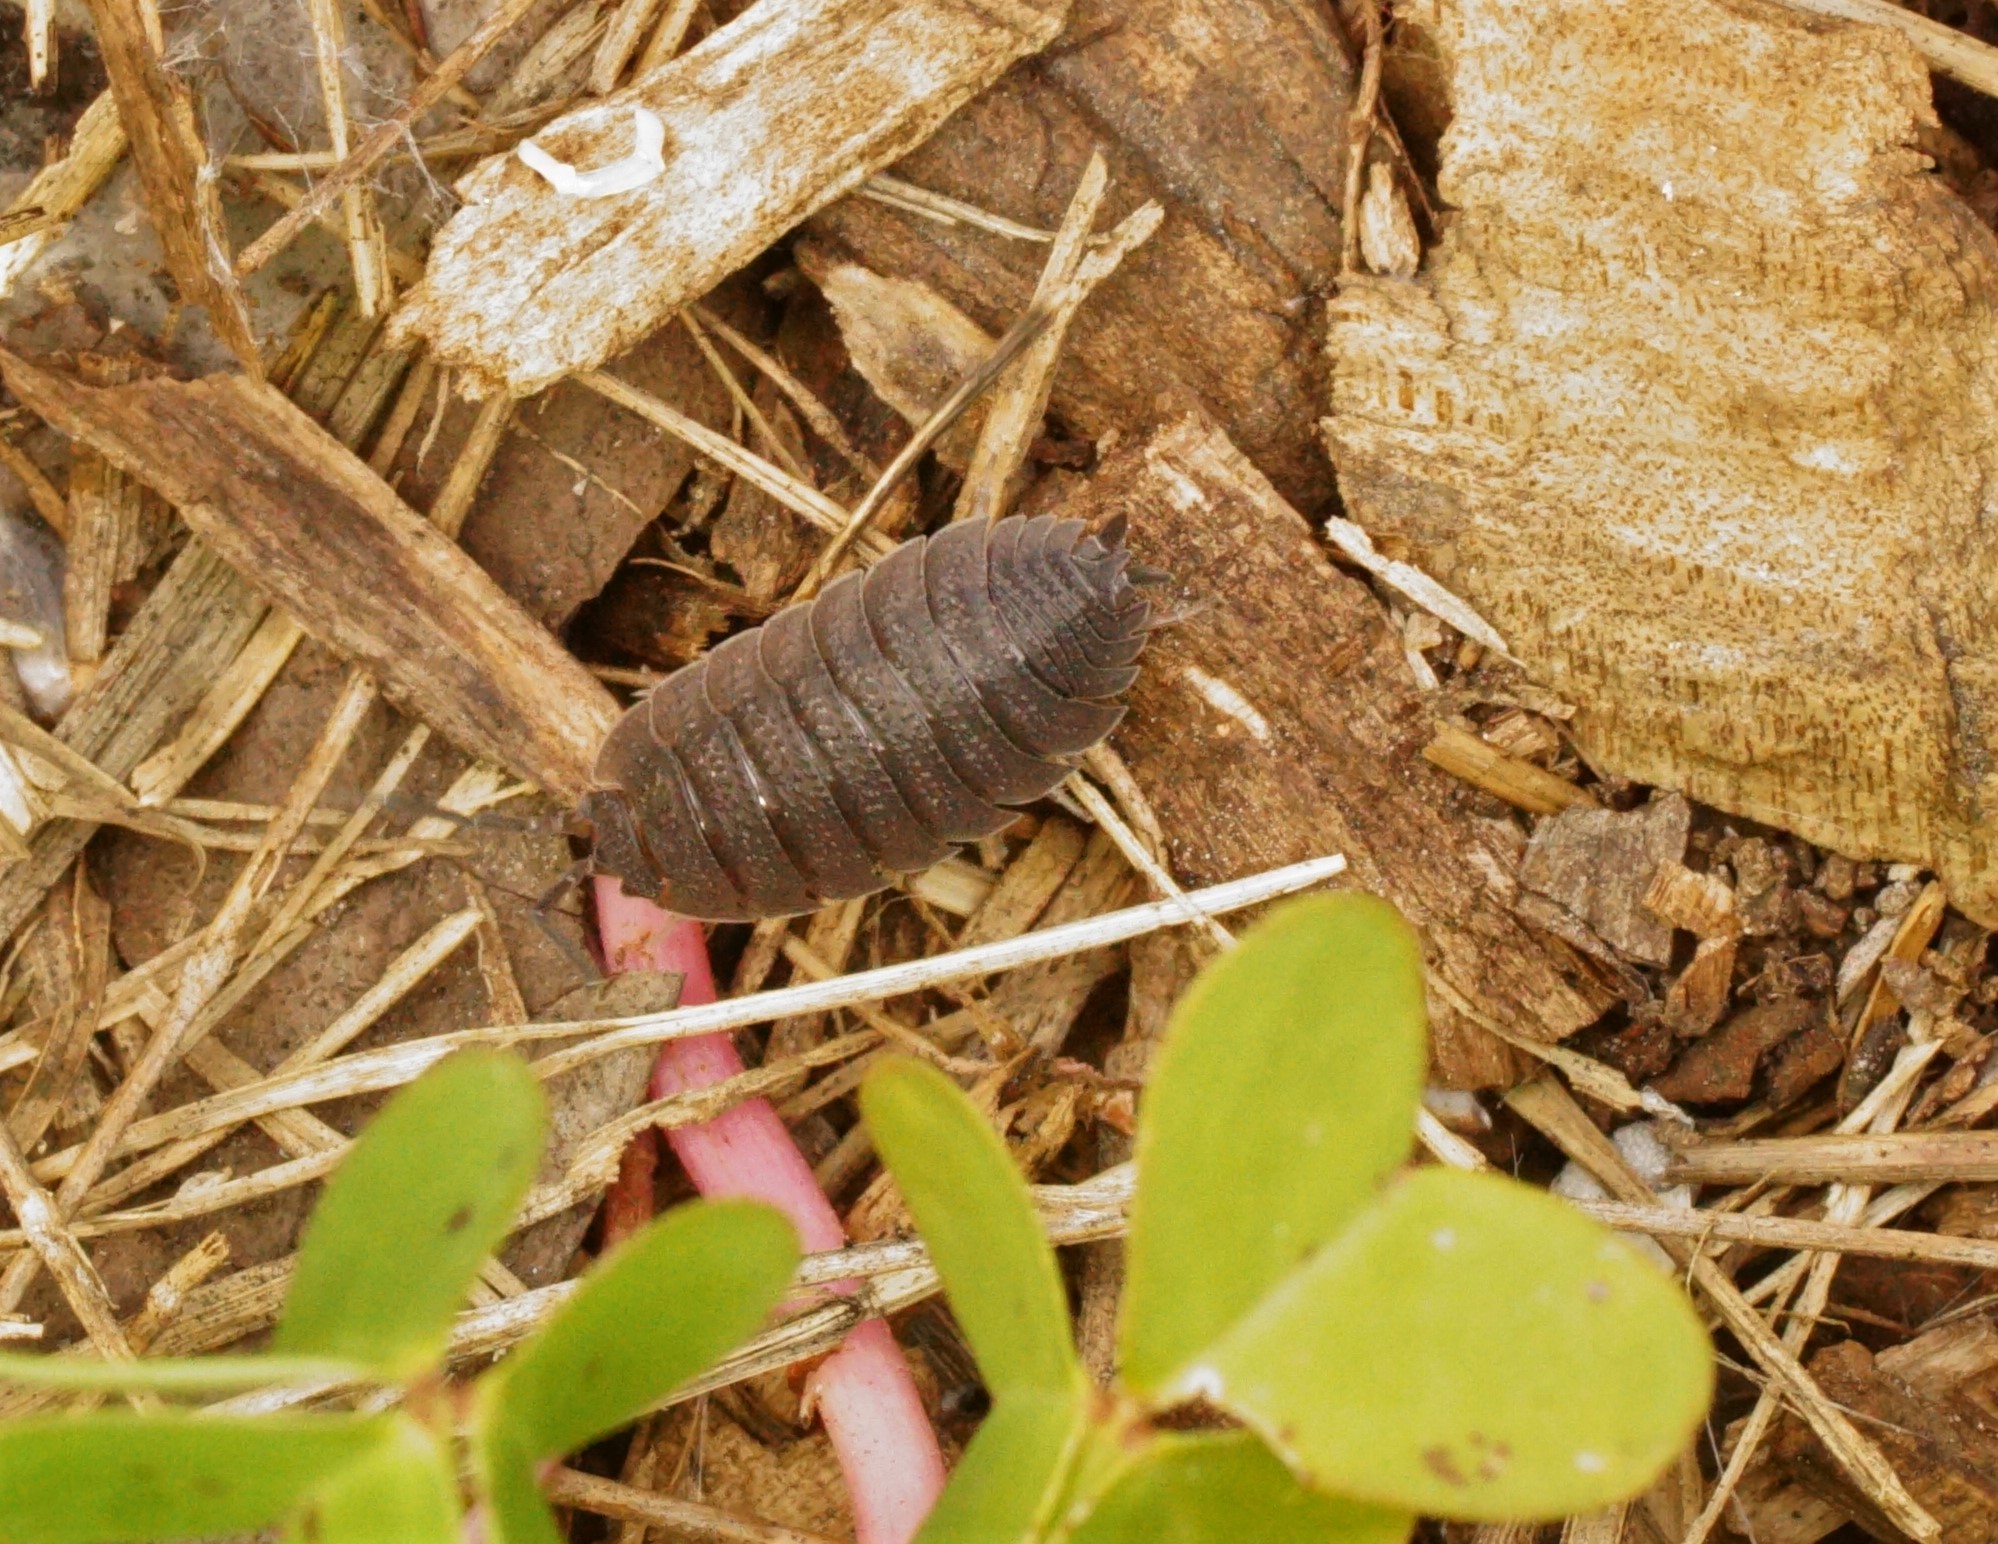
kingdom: Animalia
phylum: Arthropoda
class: Malacostraca
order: Isopoda
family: Porcellionidae
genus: Porcellio
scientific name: Porcellio scaber
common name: Common rough woodlouse
